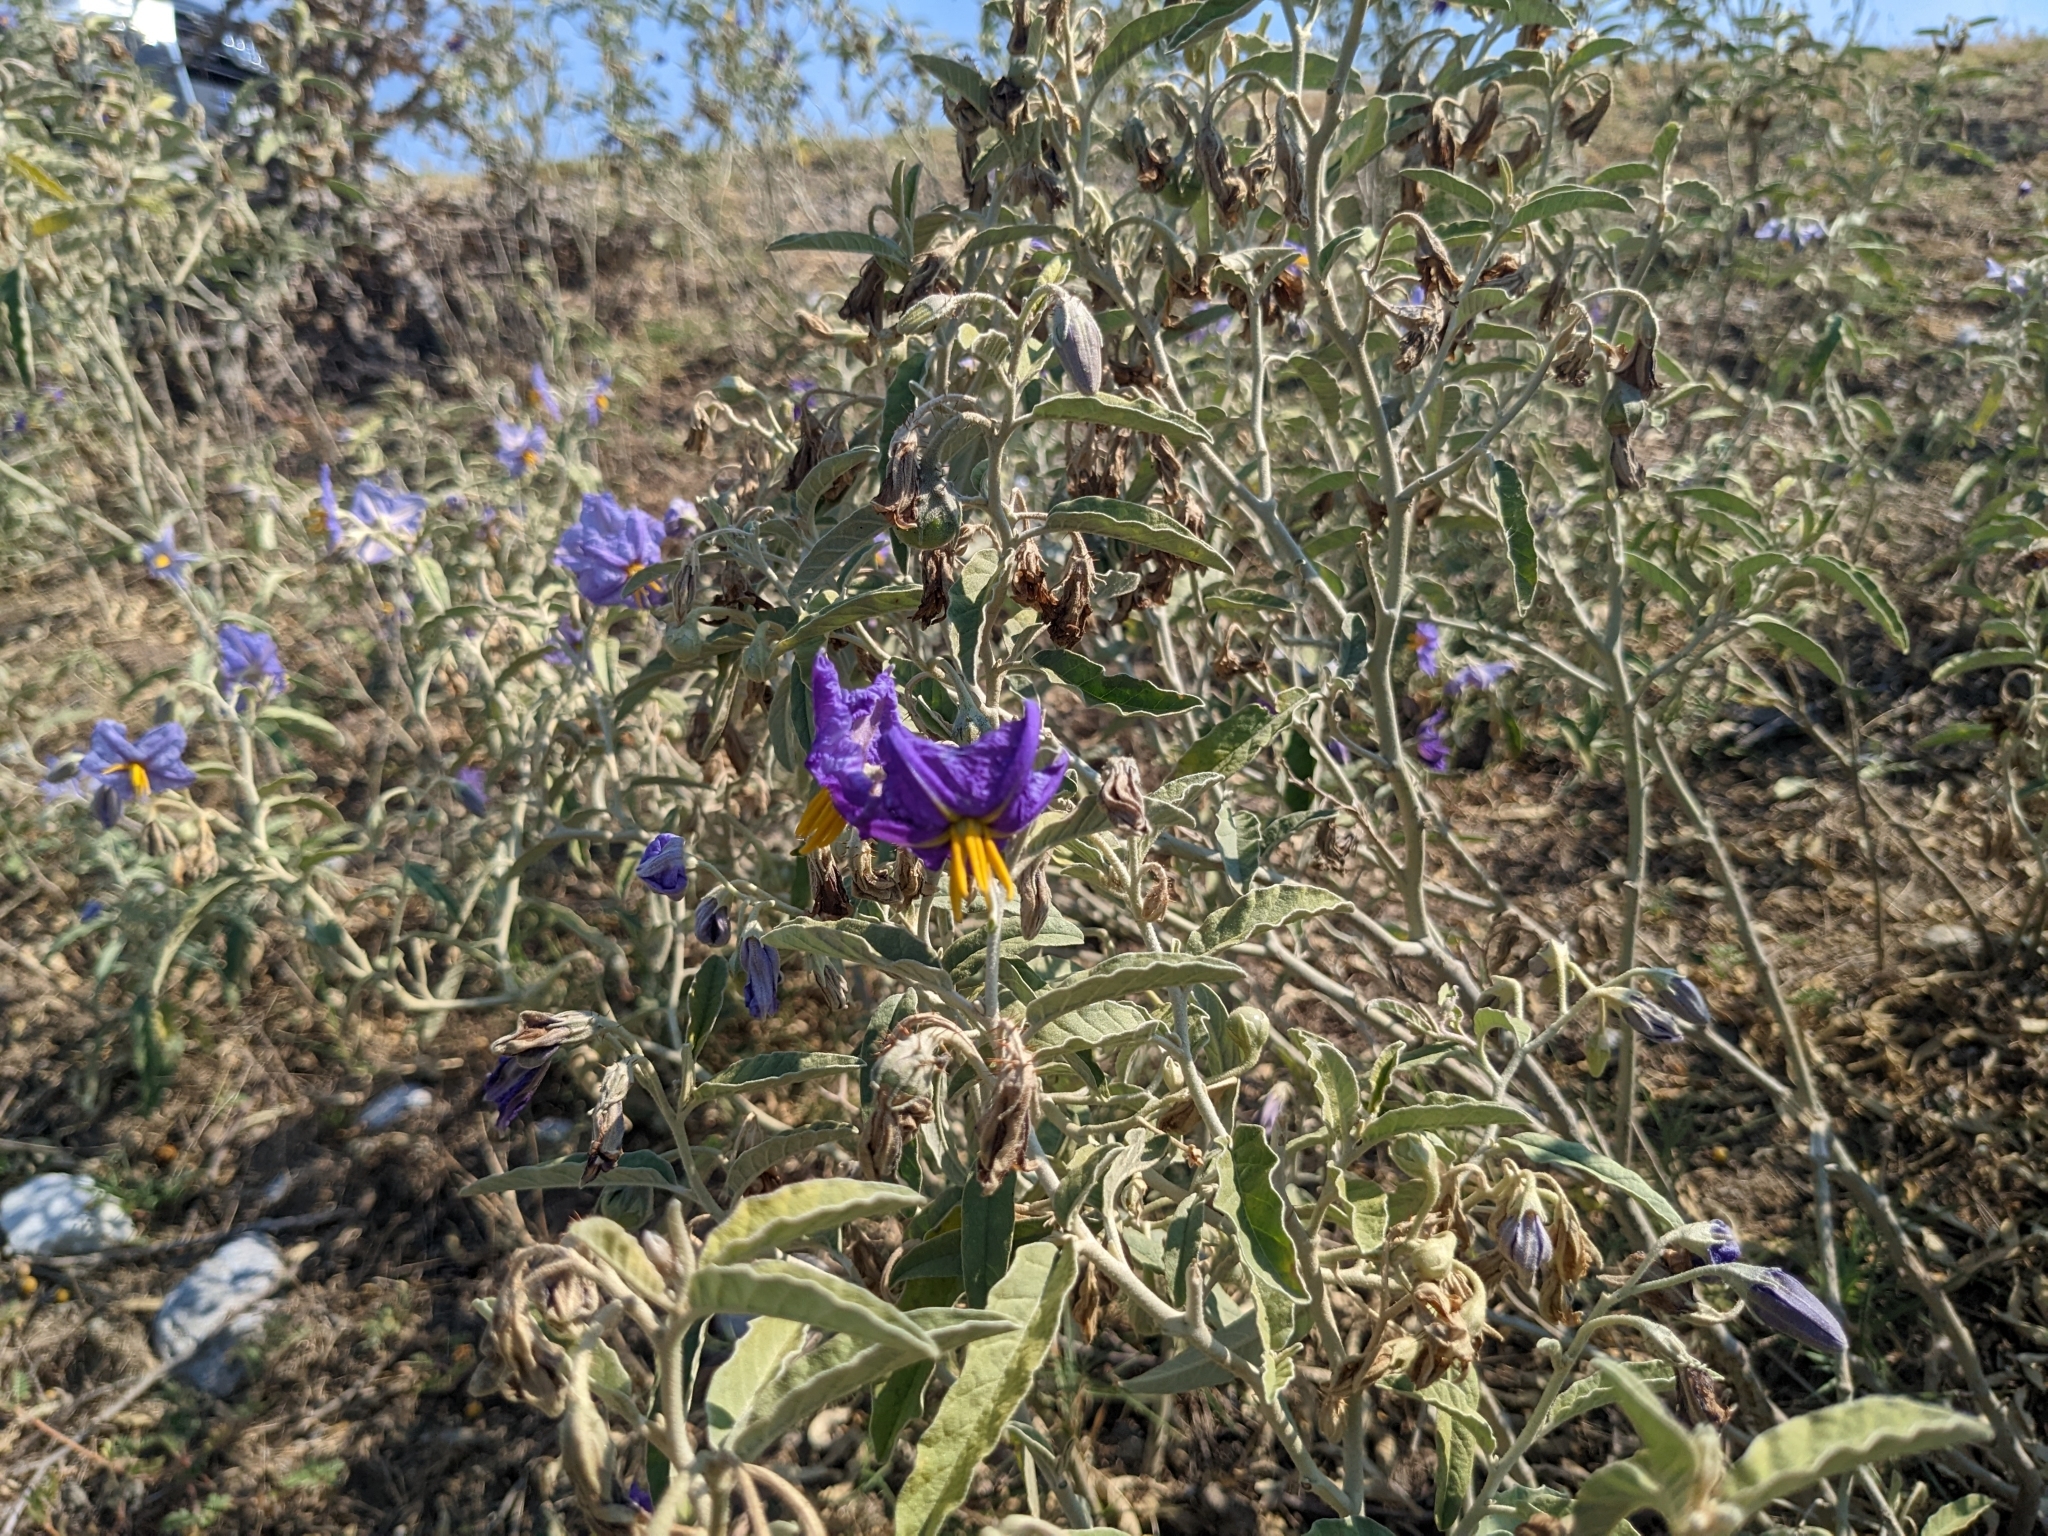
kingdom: Plantae
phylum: Tracheophyta
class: Magnoliopsida
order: Solanales
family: Solanaceae
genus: Solanum
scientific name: Solanum elaeagnifolium
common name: Silverleaf nightshade
